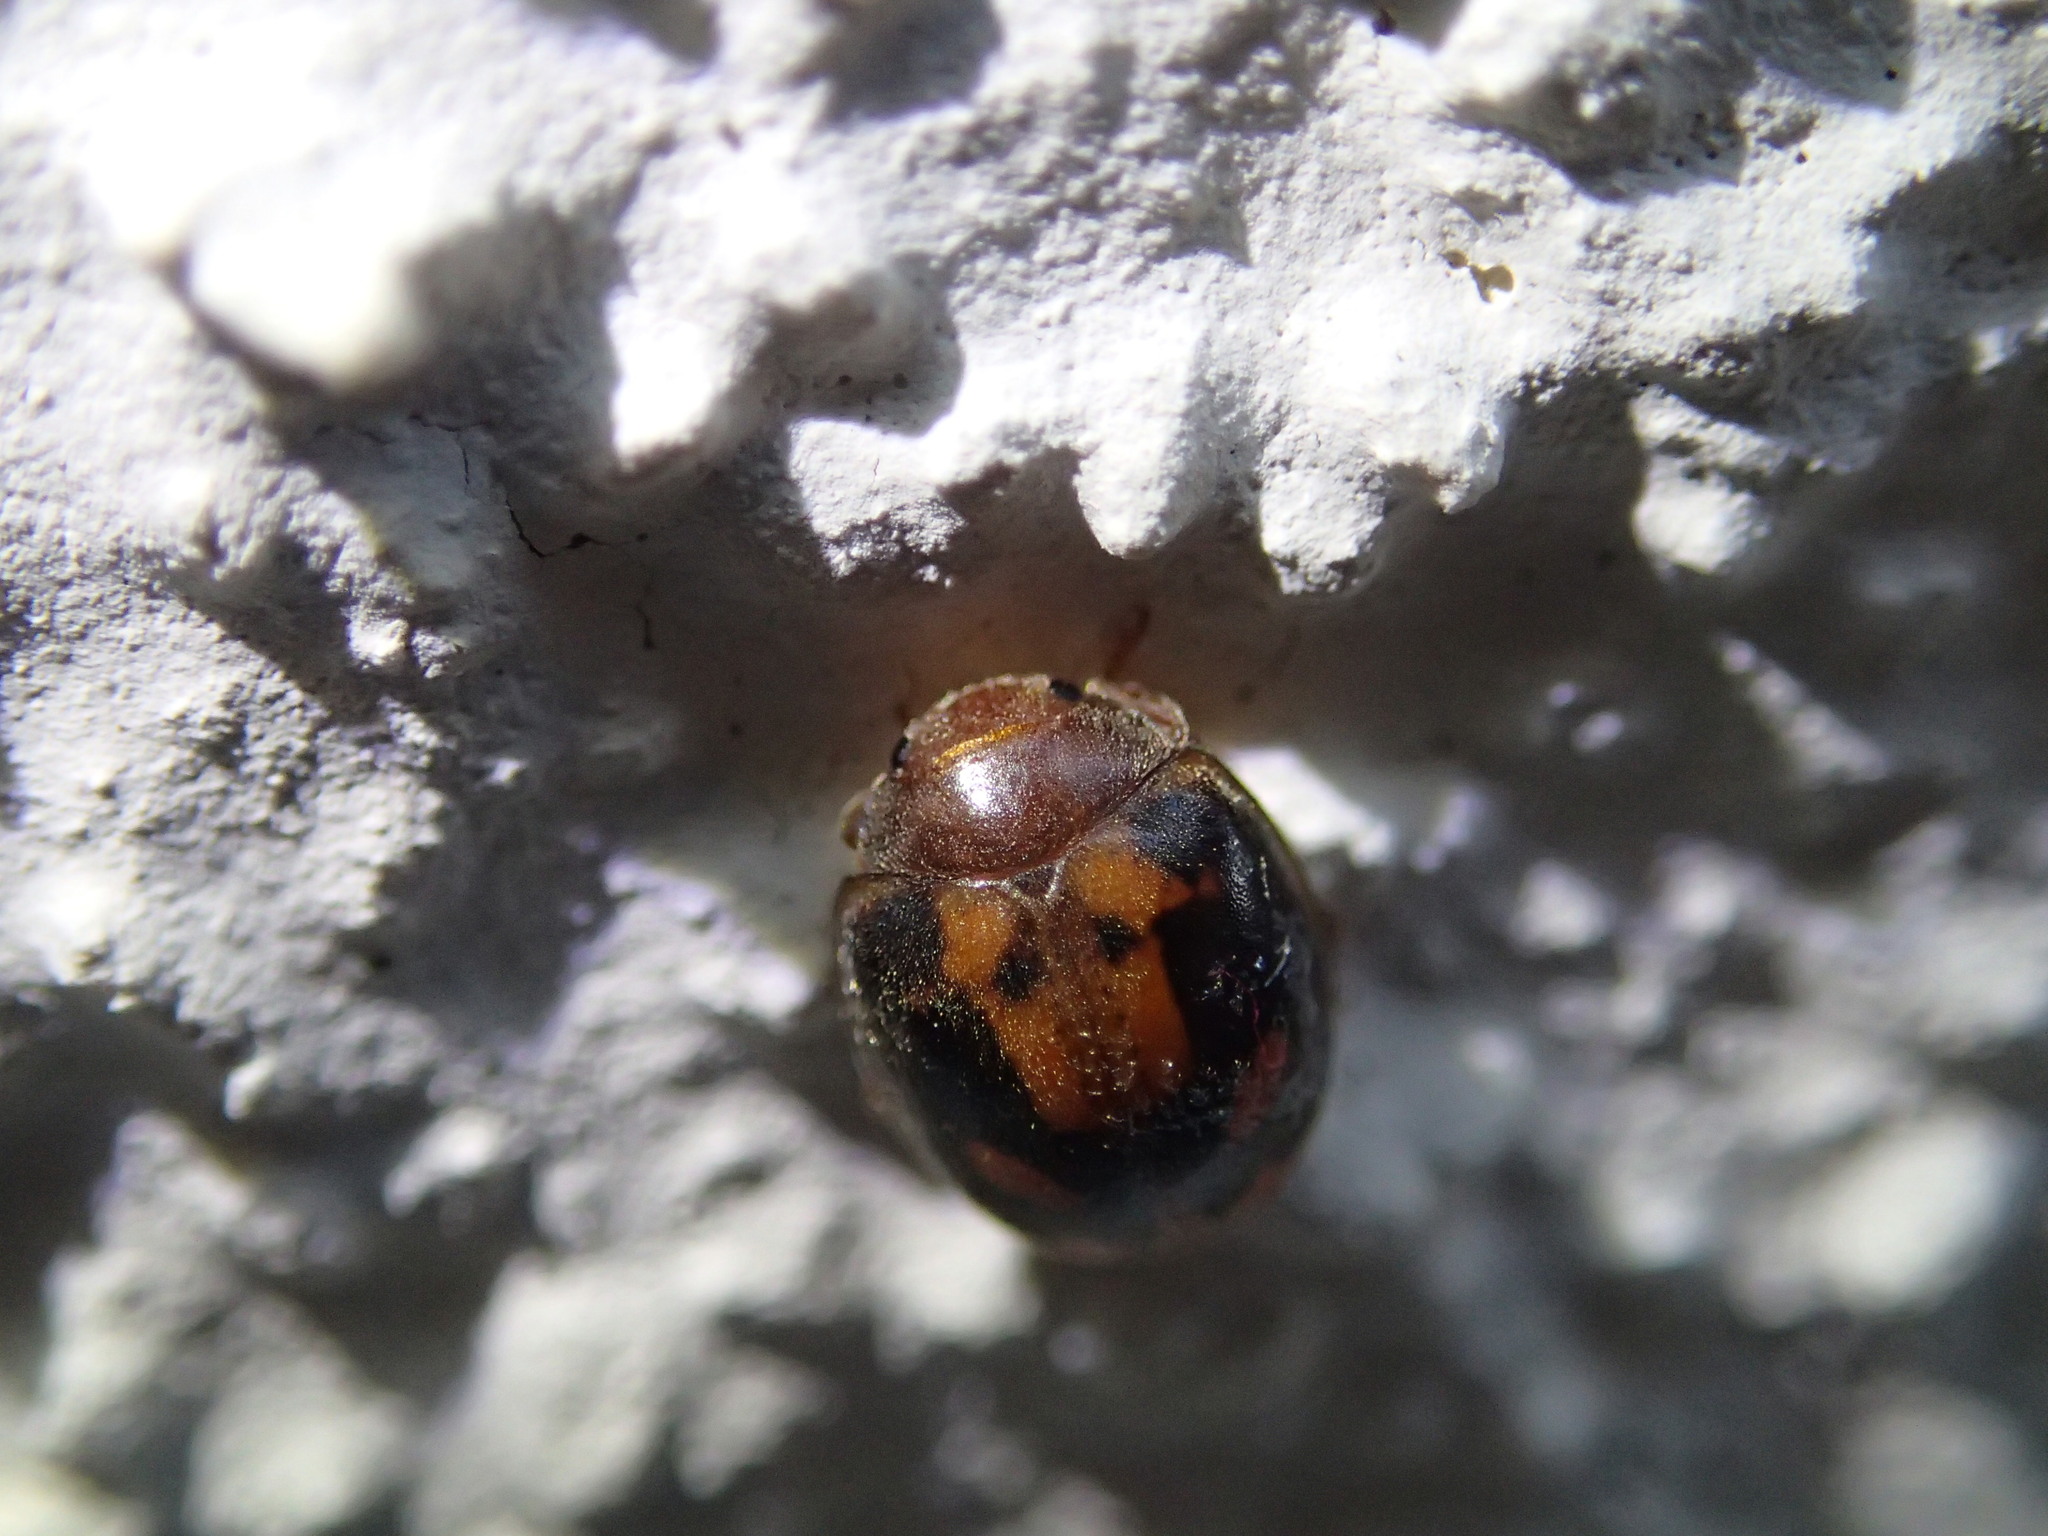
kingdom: Animalia
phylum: Arthropoda
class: Insecta
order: Coleoptera
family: Coccinellidae
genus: Subcoccinella
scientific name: Subcoccinella vigintiquatuorpunctata
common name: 24-spot ladybird
